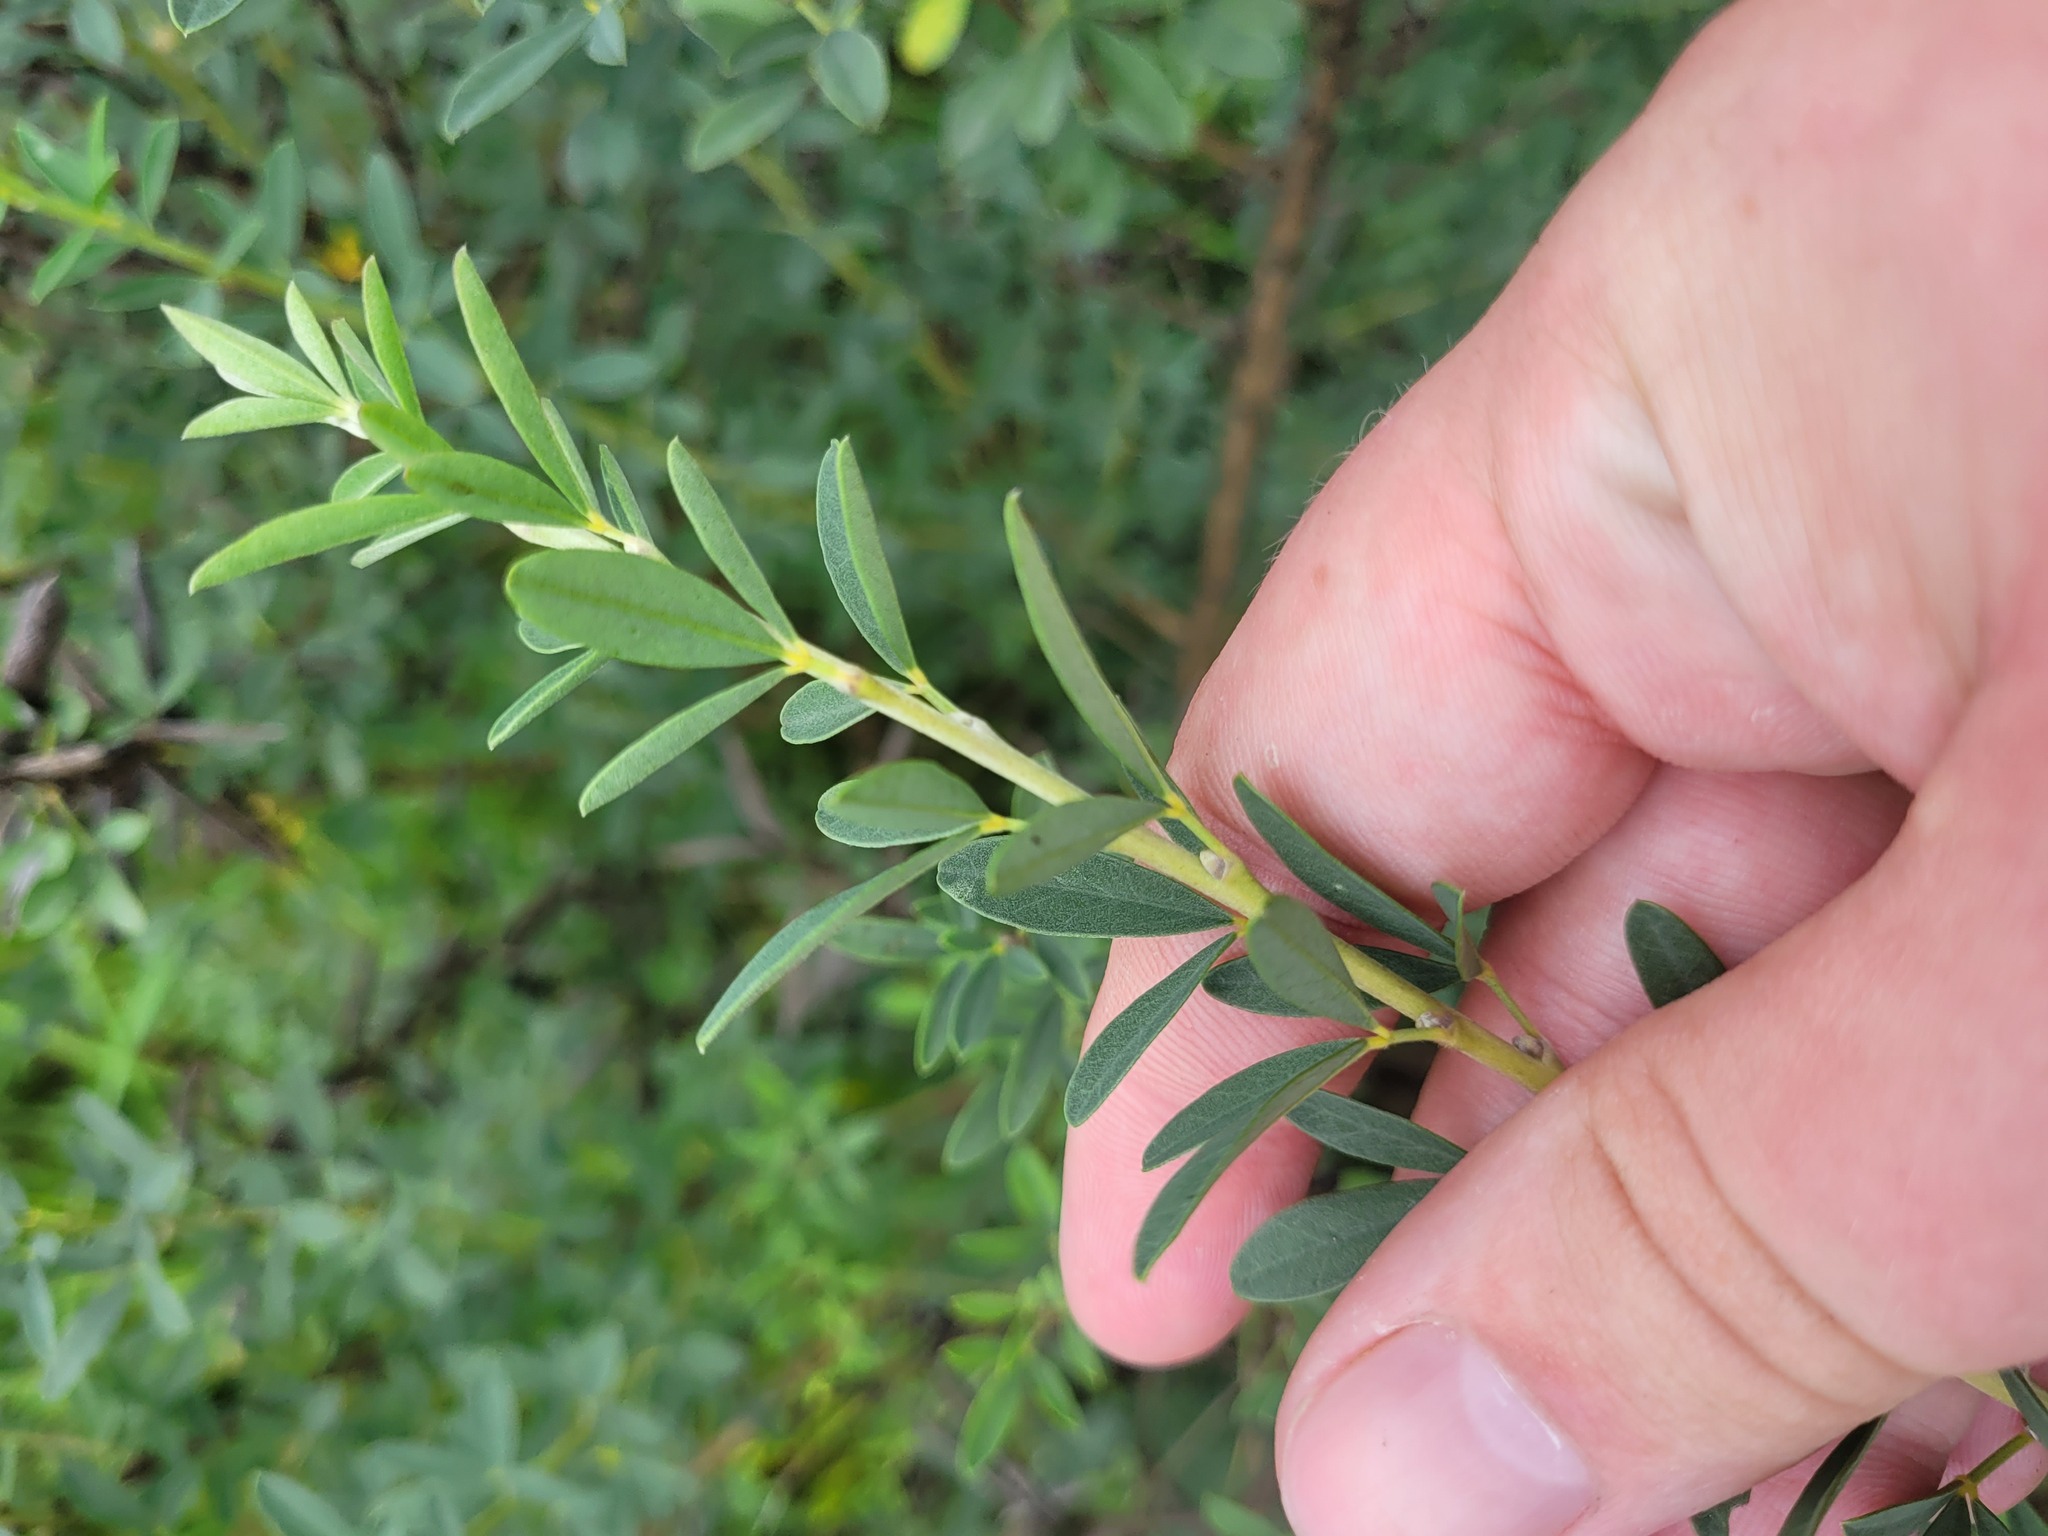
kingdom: Plantae
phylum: Tracheophyta
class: Magnoliopsida
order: Fabales
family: Fabaceae
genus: Chamaecytisus
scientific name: Chamaecytisus ruthenicus
